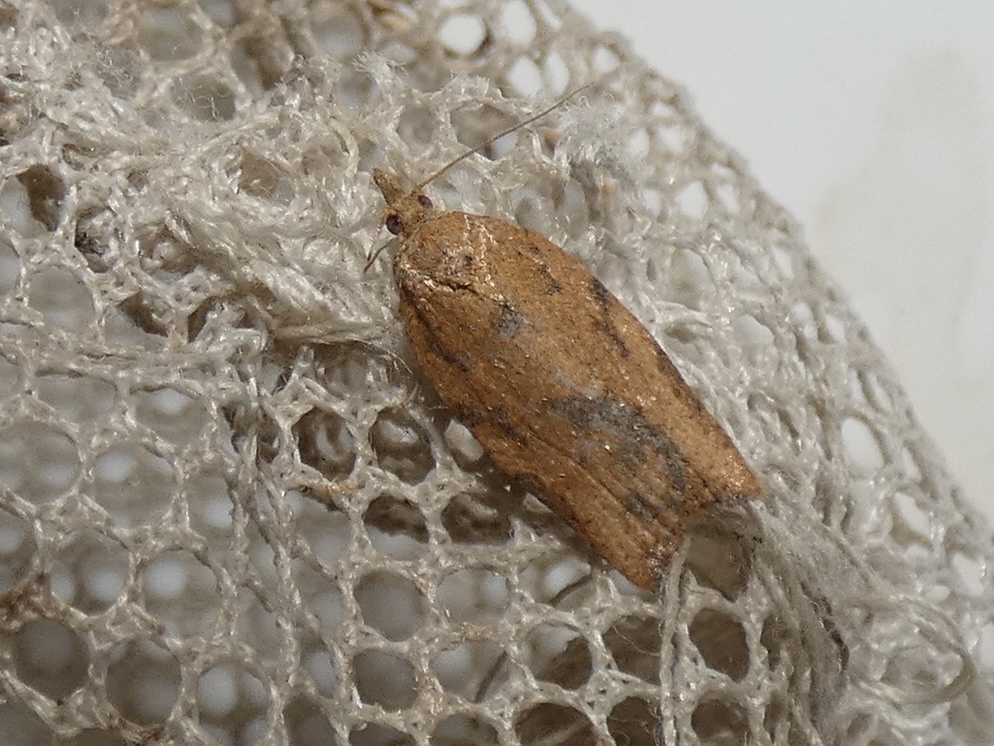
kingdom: Animalia
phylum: Arthropoda
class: Insecta
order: Lepidoptera
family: Tortricidae
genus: Epiphyas
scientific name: Epiphyas postvittana
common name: Light brown apple moth
